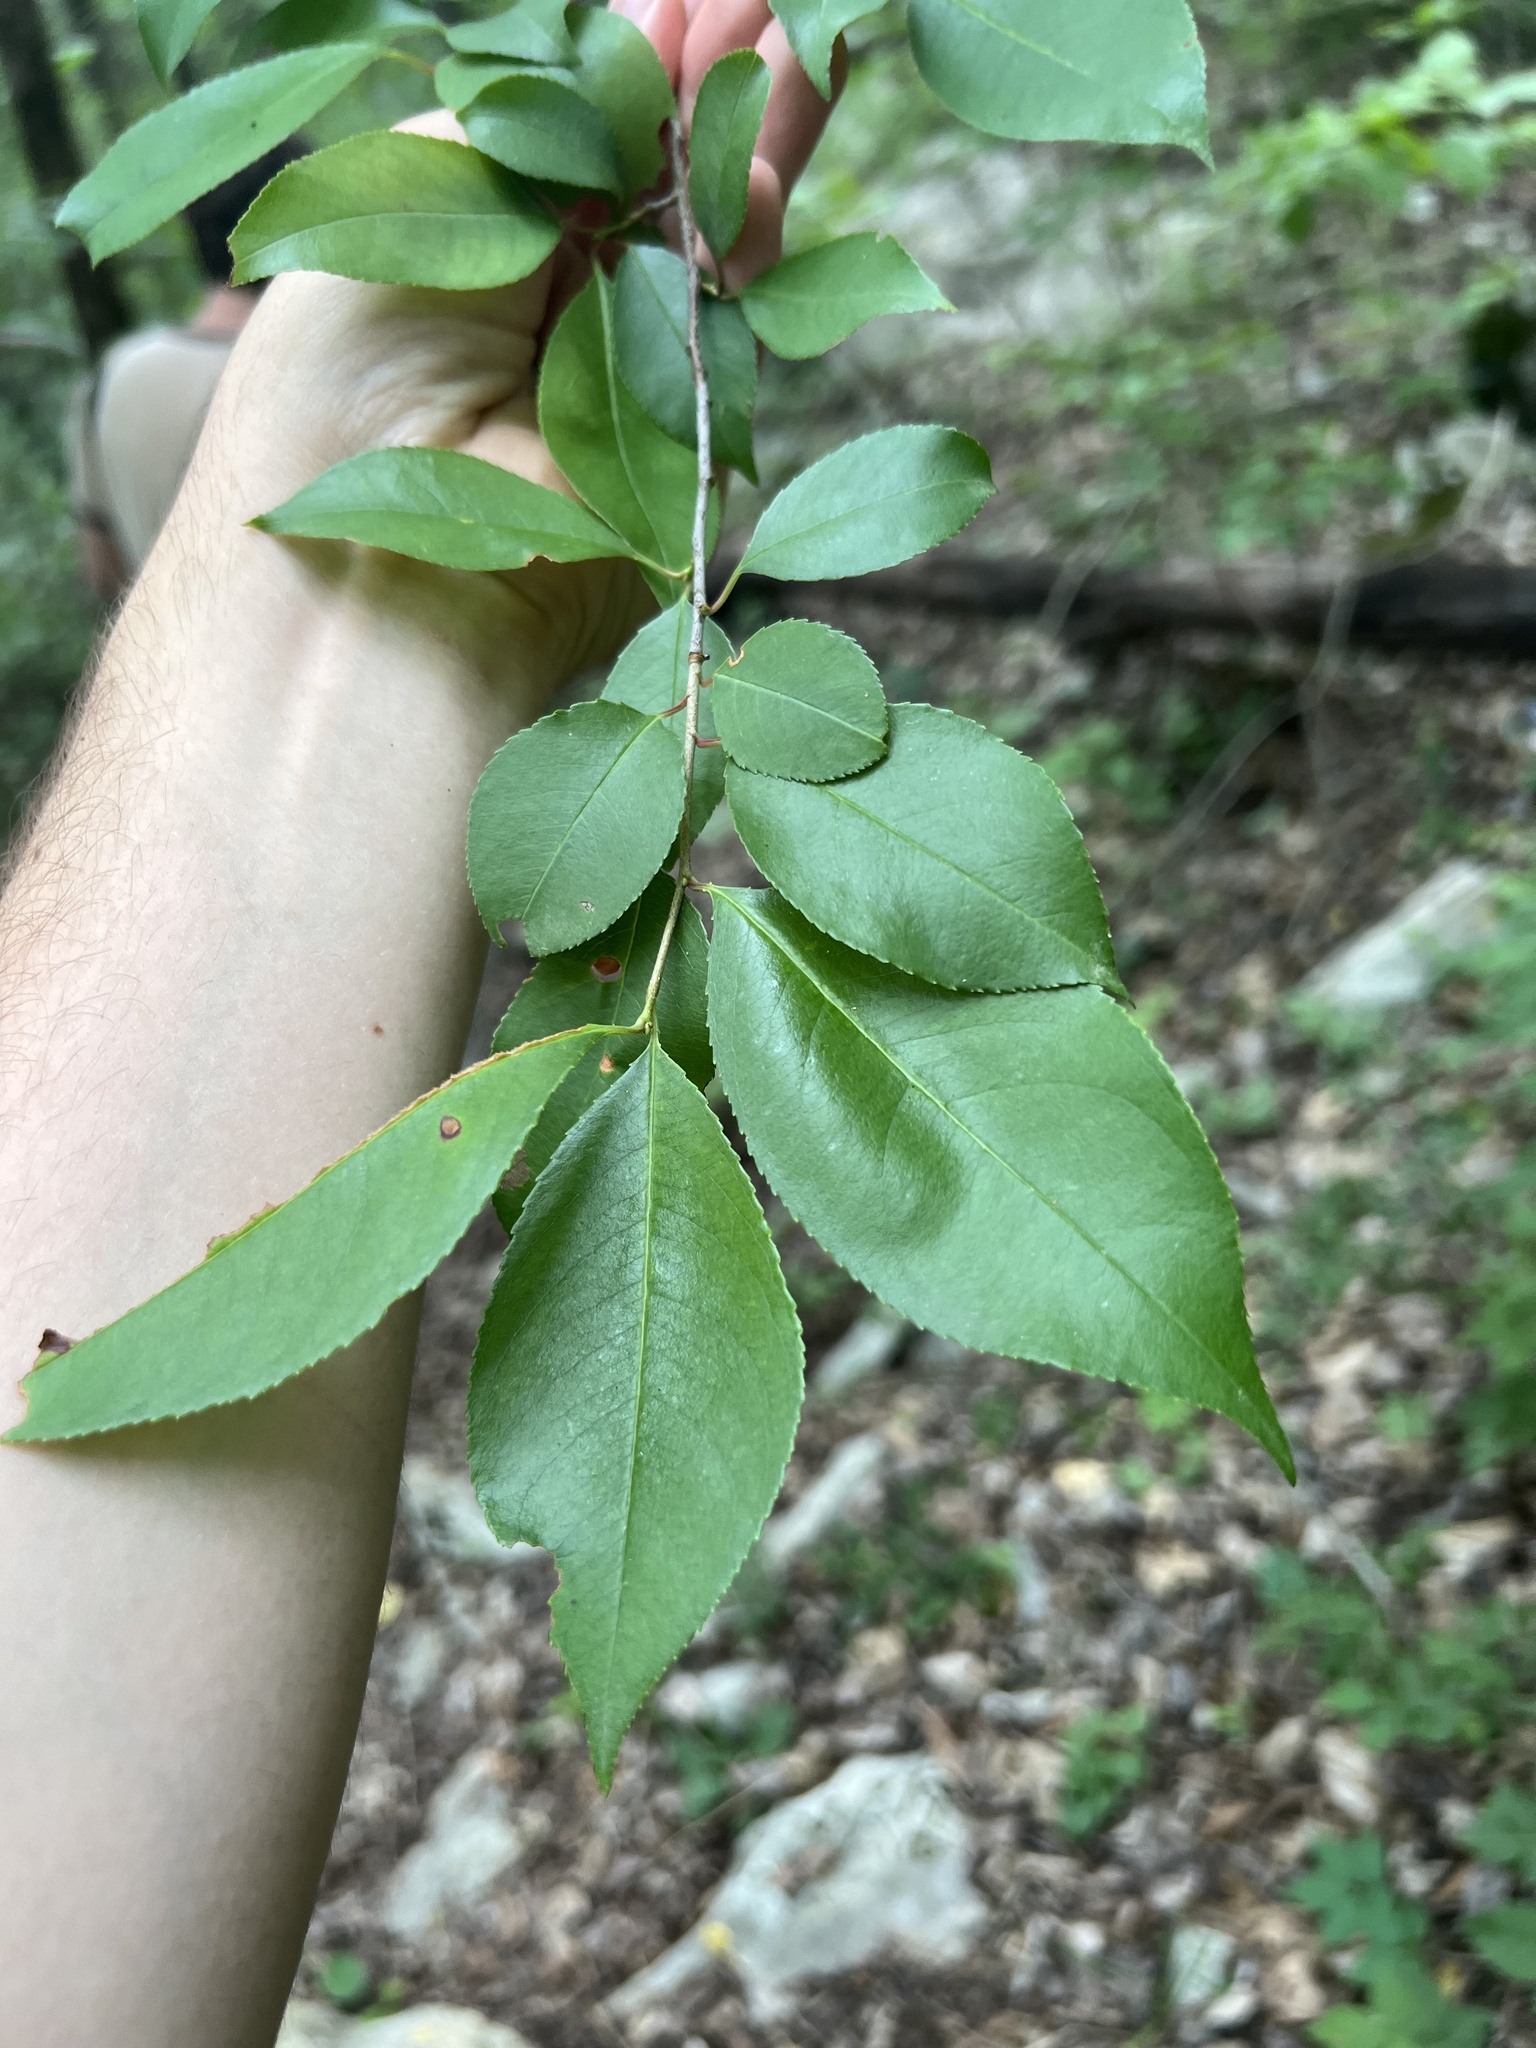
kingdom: Plantae
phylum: Tracheophyta
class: Magnoliopsida
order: Rosales
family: Rosaceae
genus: Prunus
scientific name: Prunus serotina
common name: Black cherry
